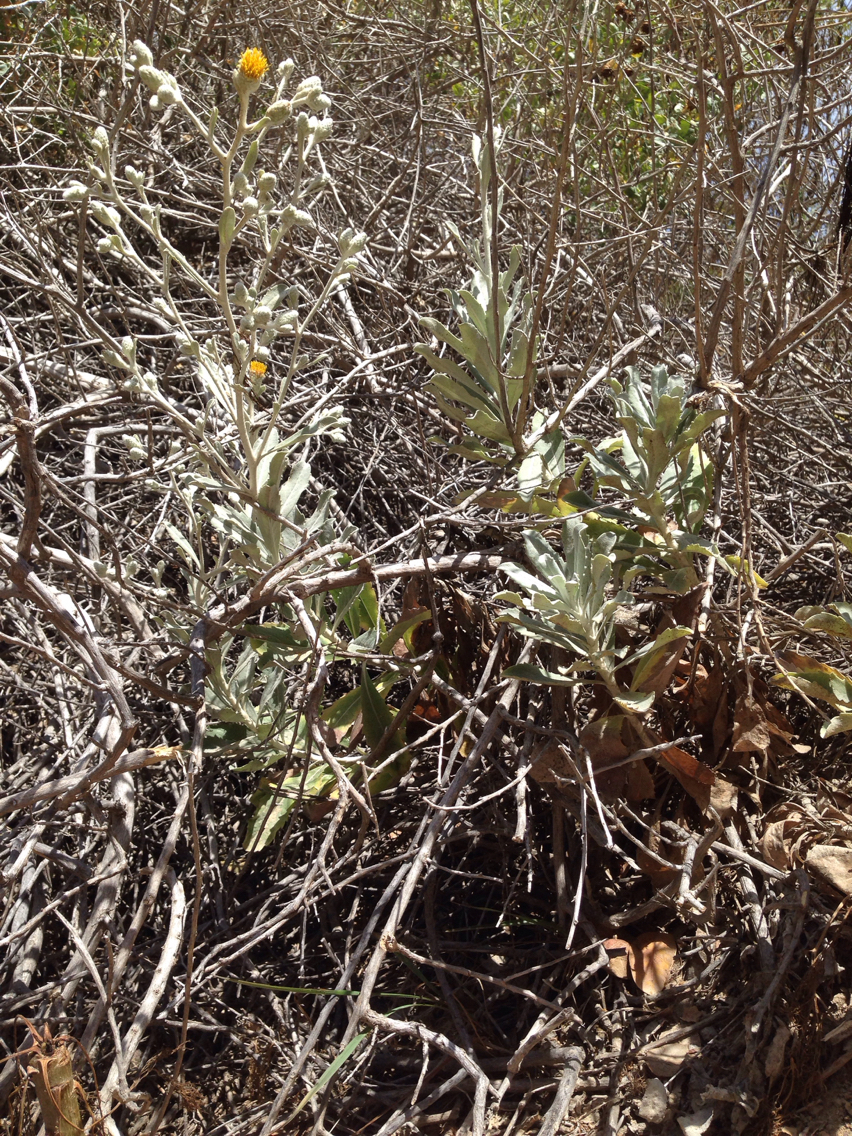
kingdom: Plantae
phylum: Tracheophyta
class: Magnoliopsida
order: Asterales
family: Asteraceae
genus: Hazardia
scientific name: Hazardia detonsa
